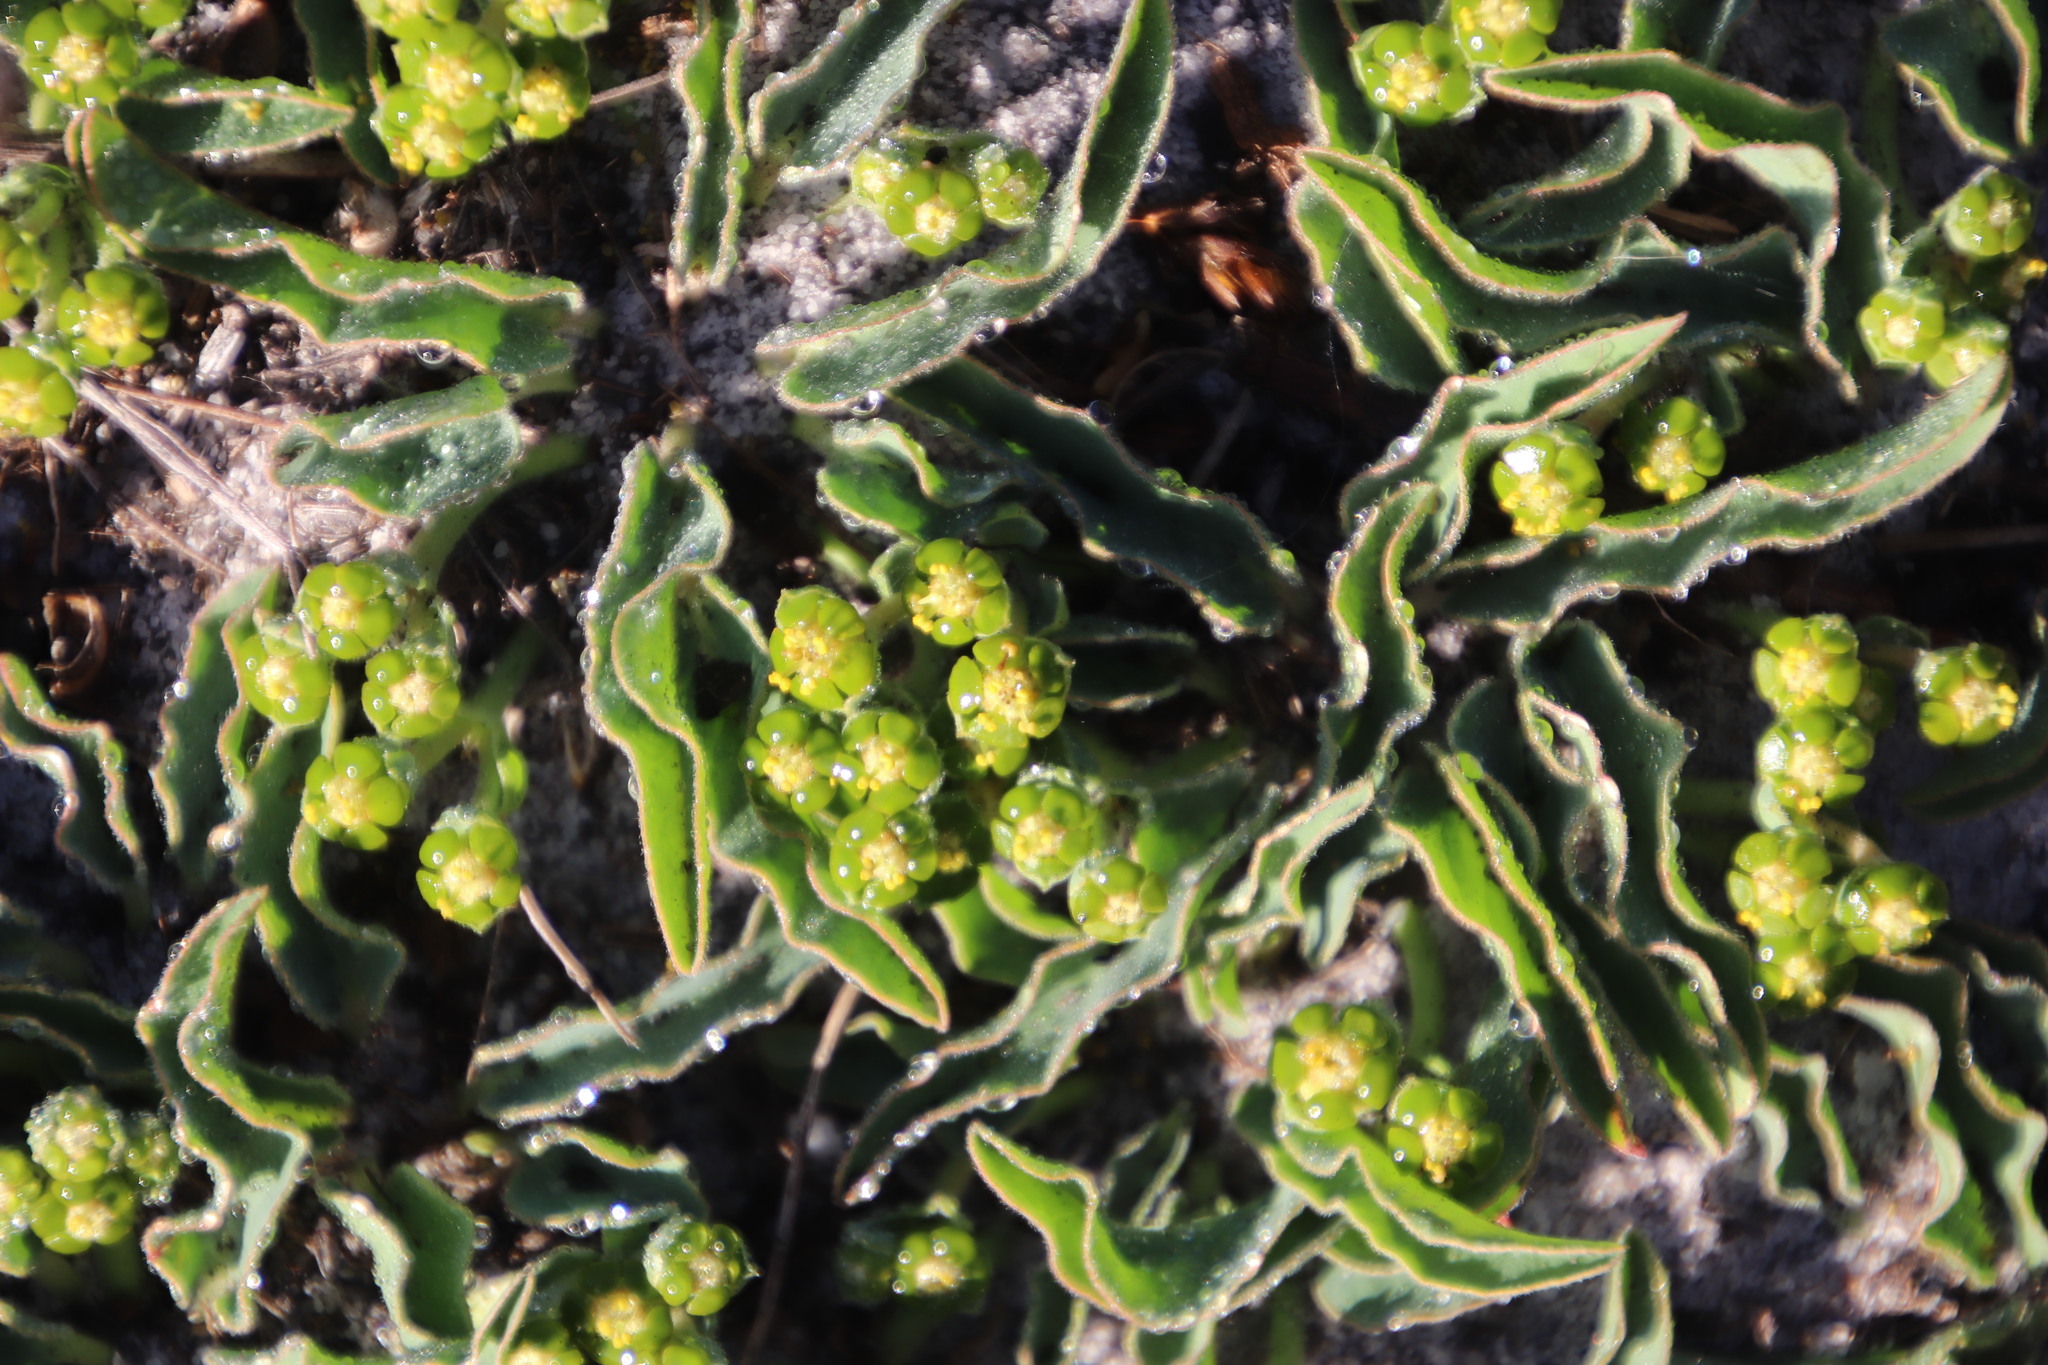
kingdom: Plantae
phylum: Tracheophyta
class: Magnoliopsida
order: Malpighiales
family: Euphorbiaceae
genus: Euphorbia
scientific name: Euphorbia tuberosa
